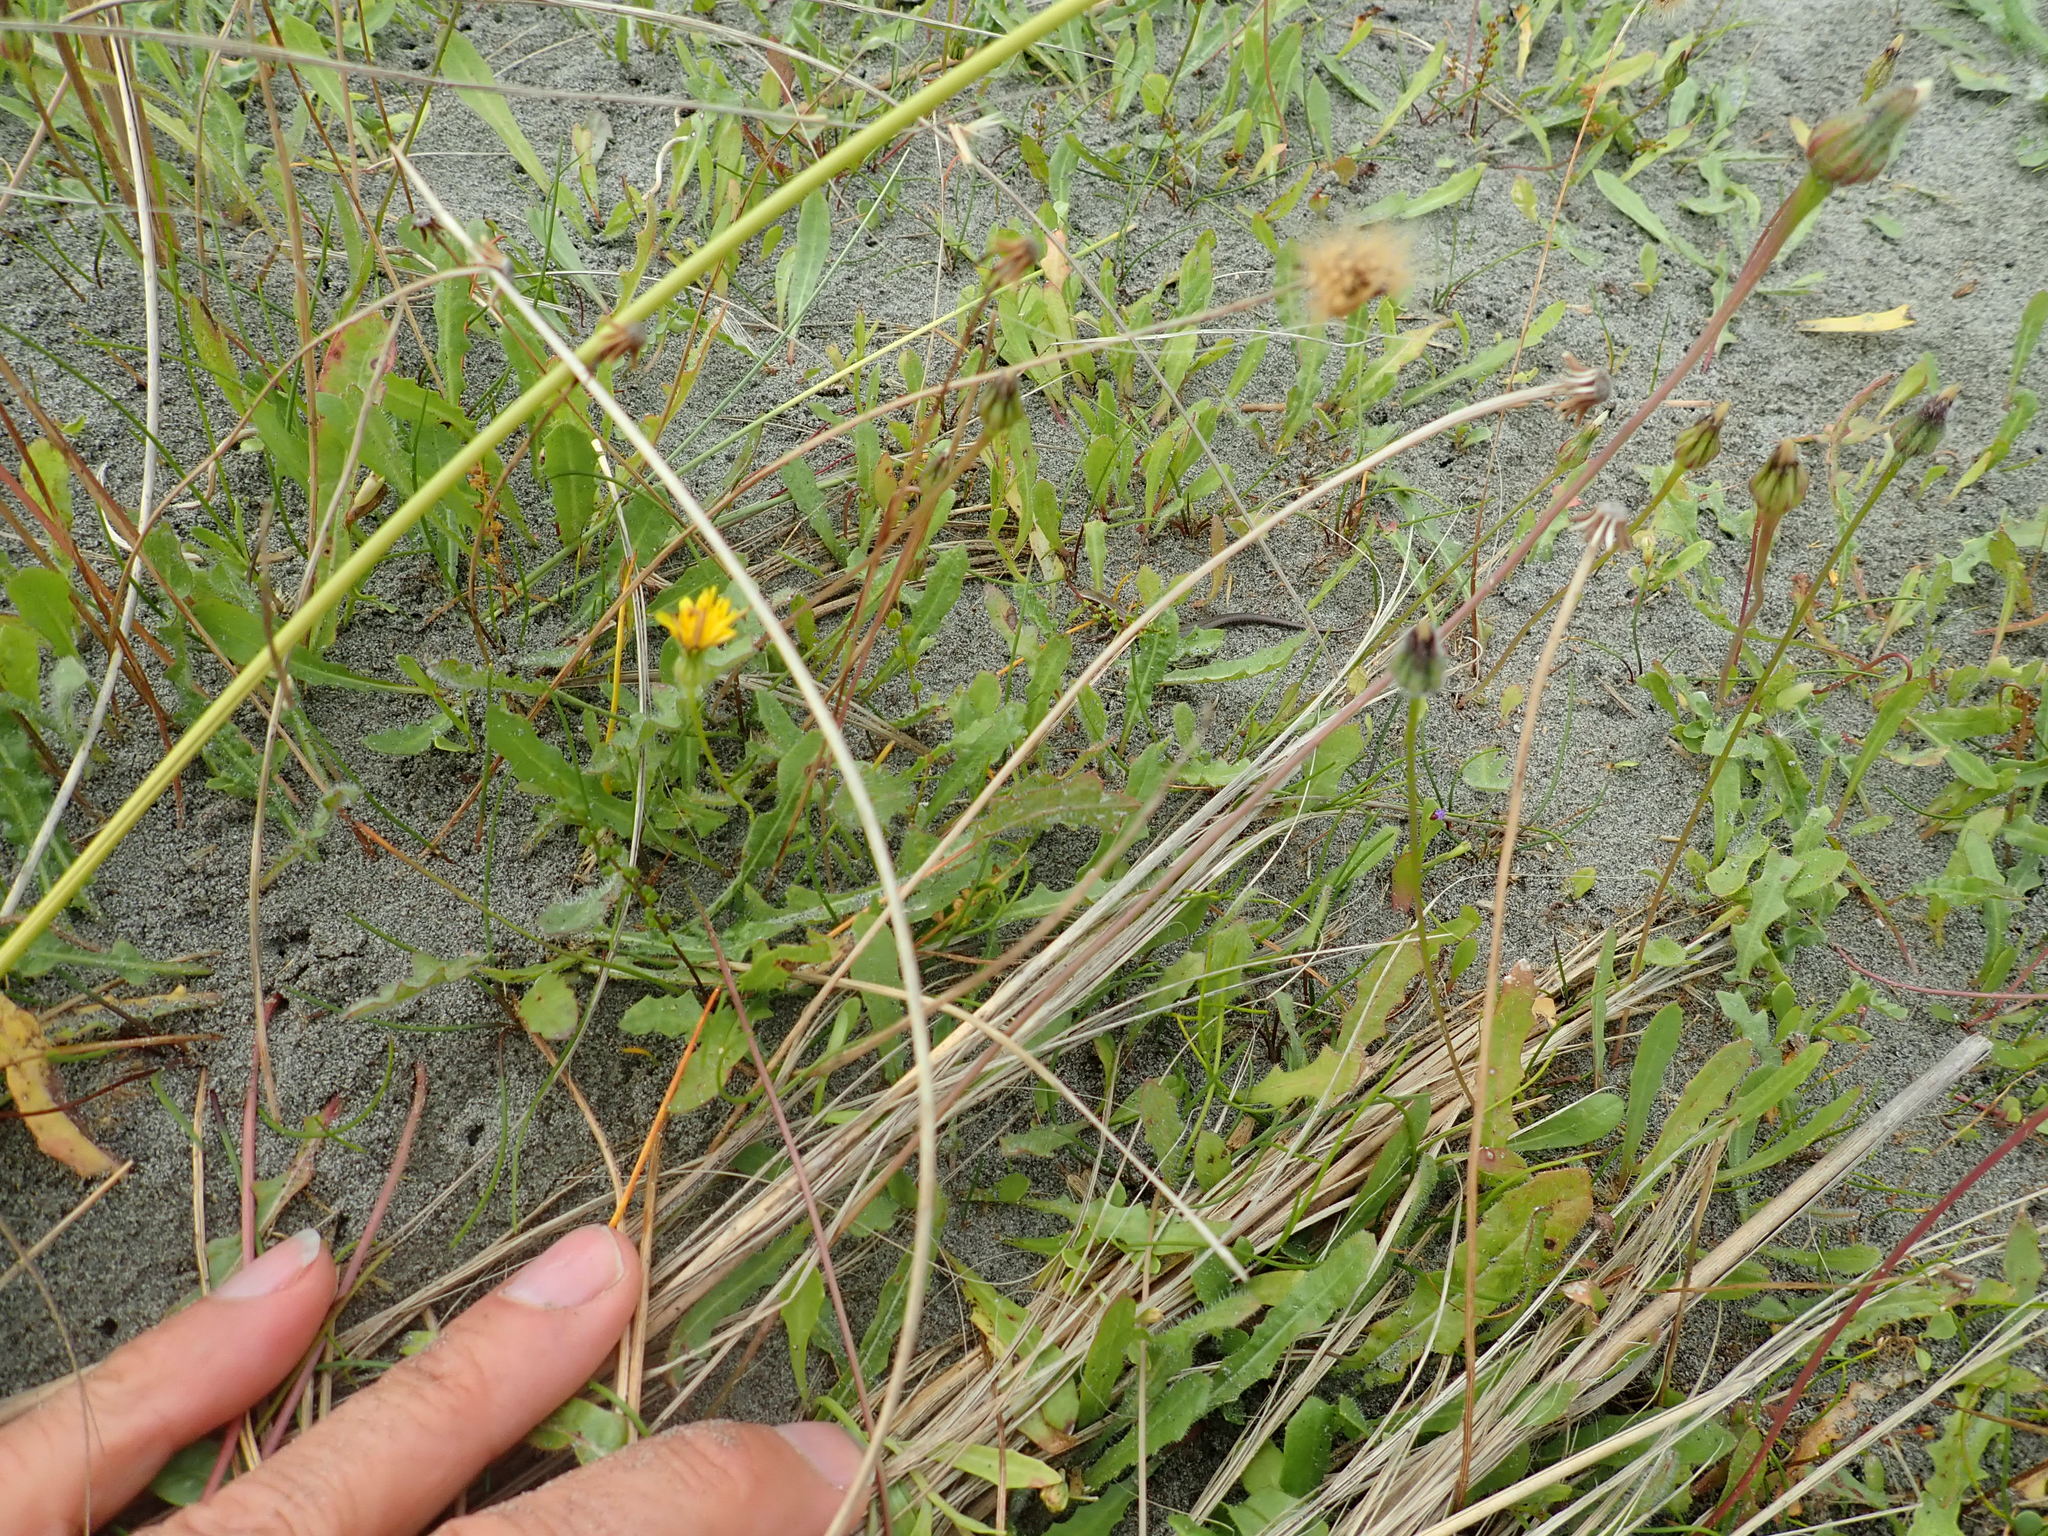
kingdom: Animalia
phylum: Chordata
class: Squamata
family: Scincidae
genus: Oligosoma
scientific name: Oligosoma polychroma
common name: Common new zealand skink
